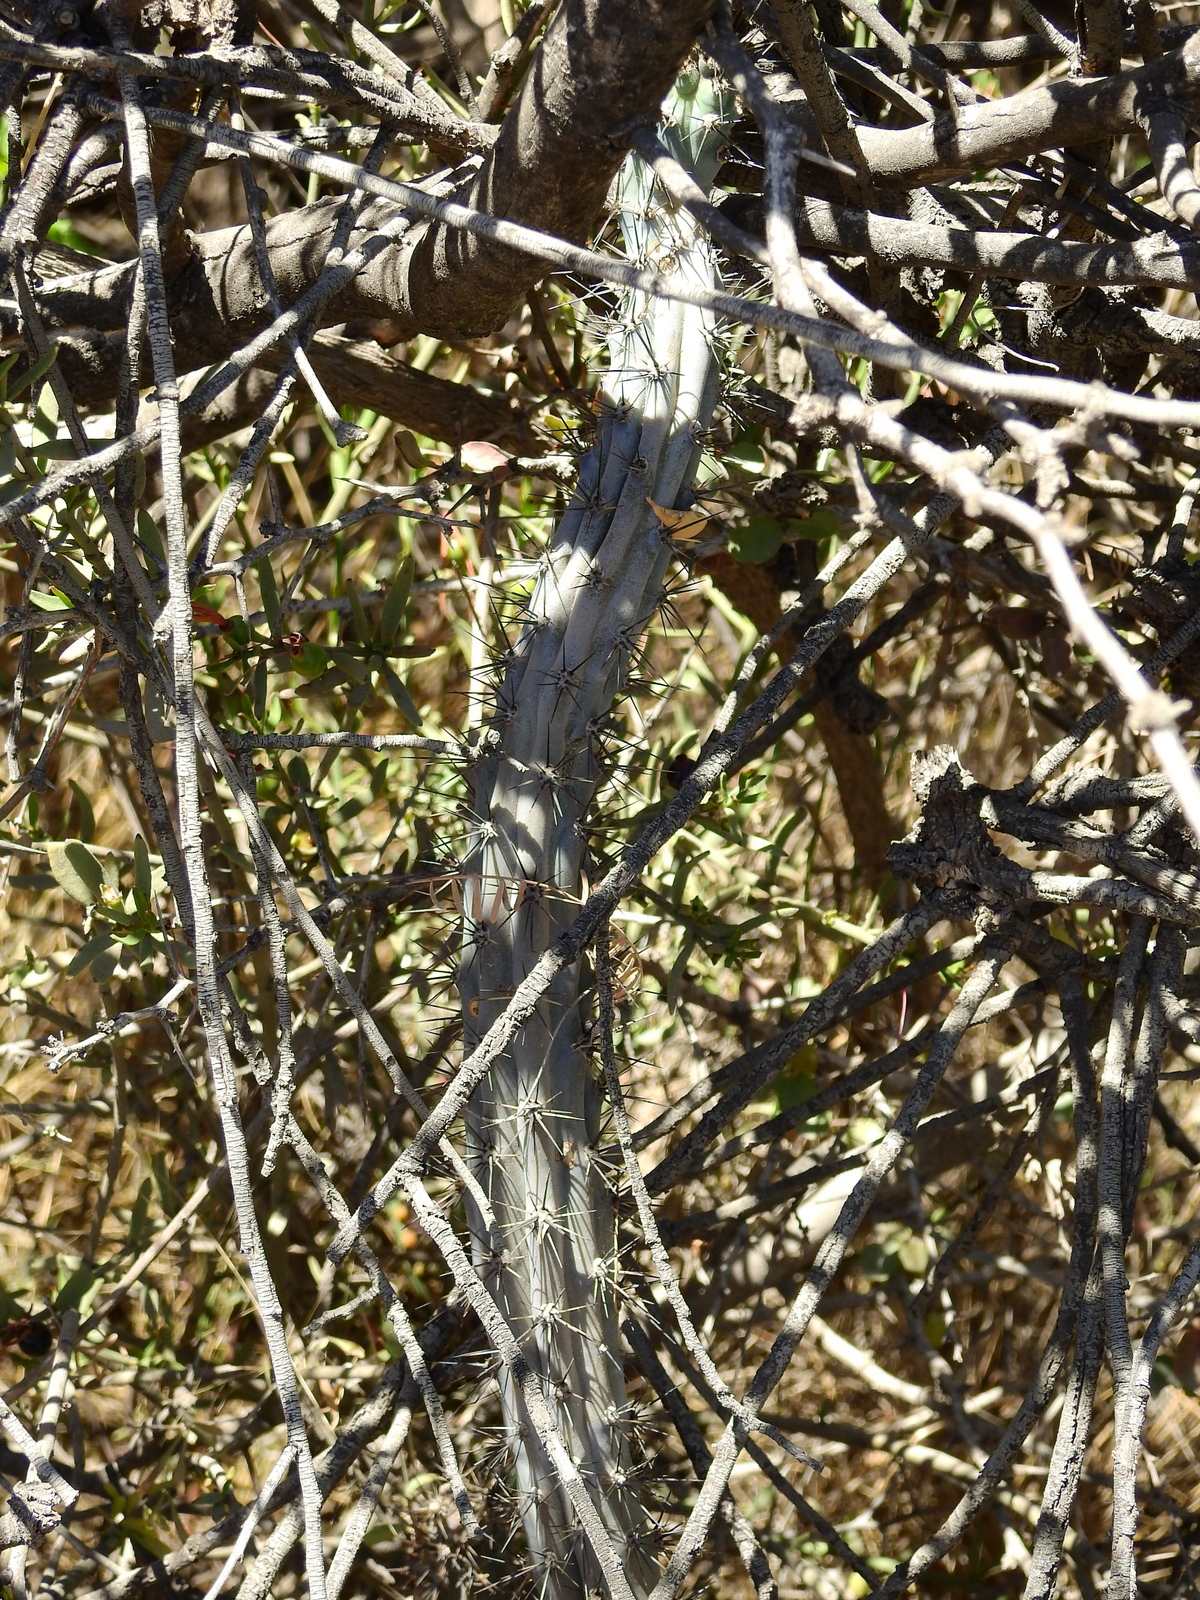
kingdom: Plantae
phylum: Tracheophyta
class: Magnoliopsida
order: Caryophyllales
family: Cactaceae
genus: Cereus
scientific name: Cereus aethiops
